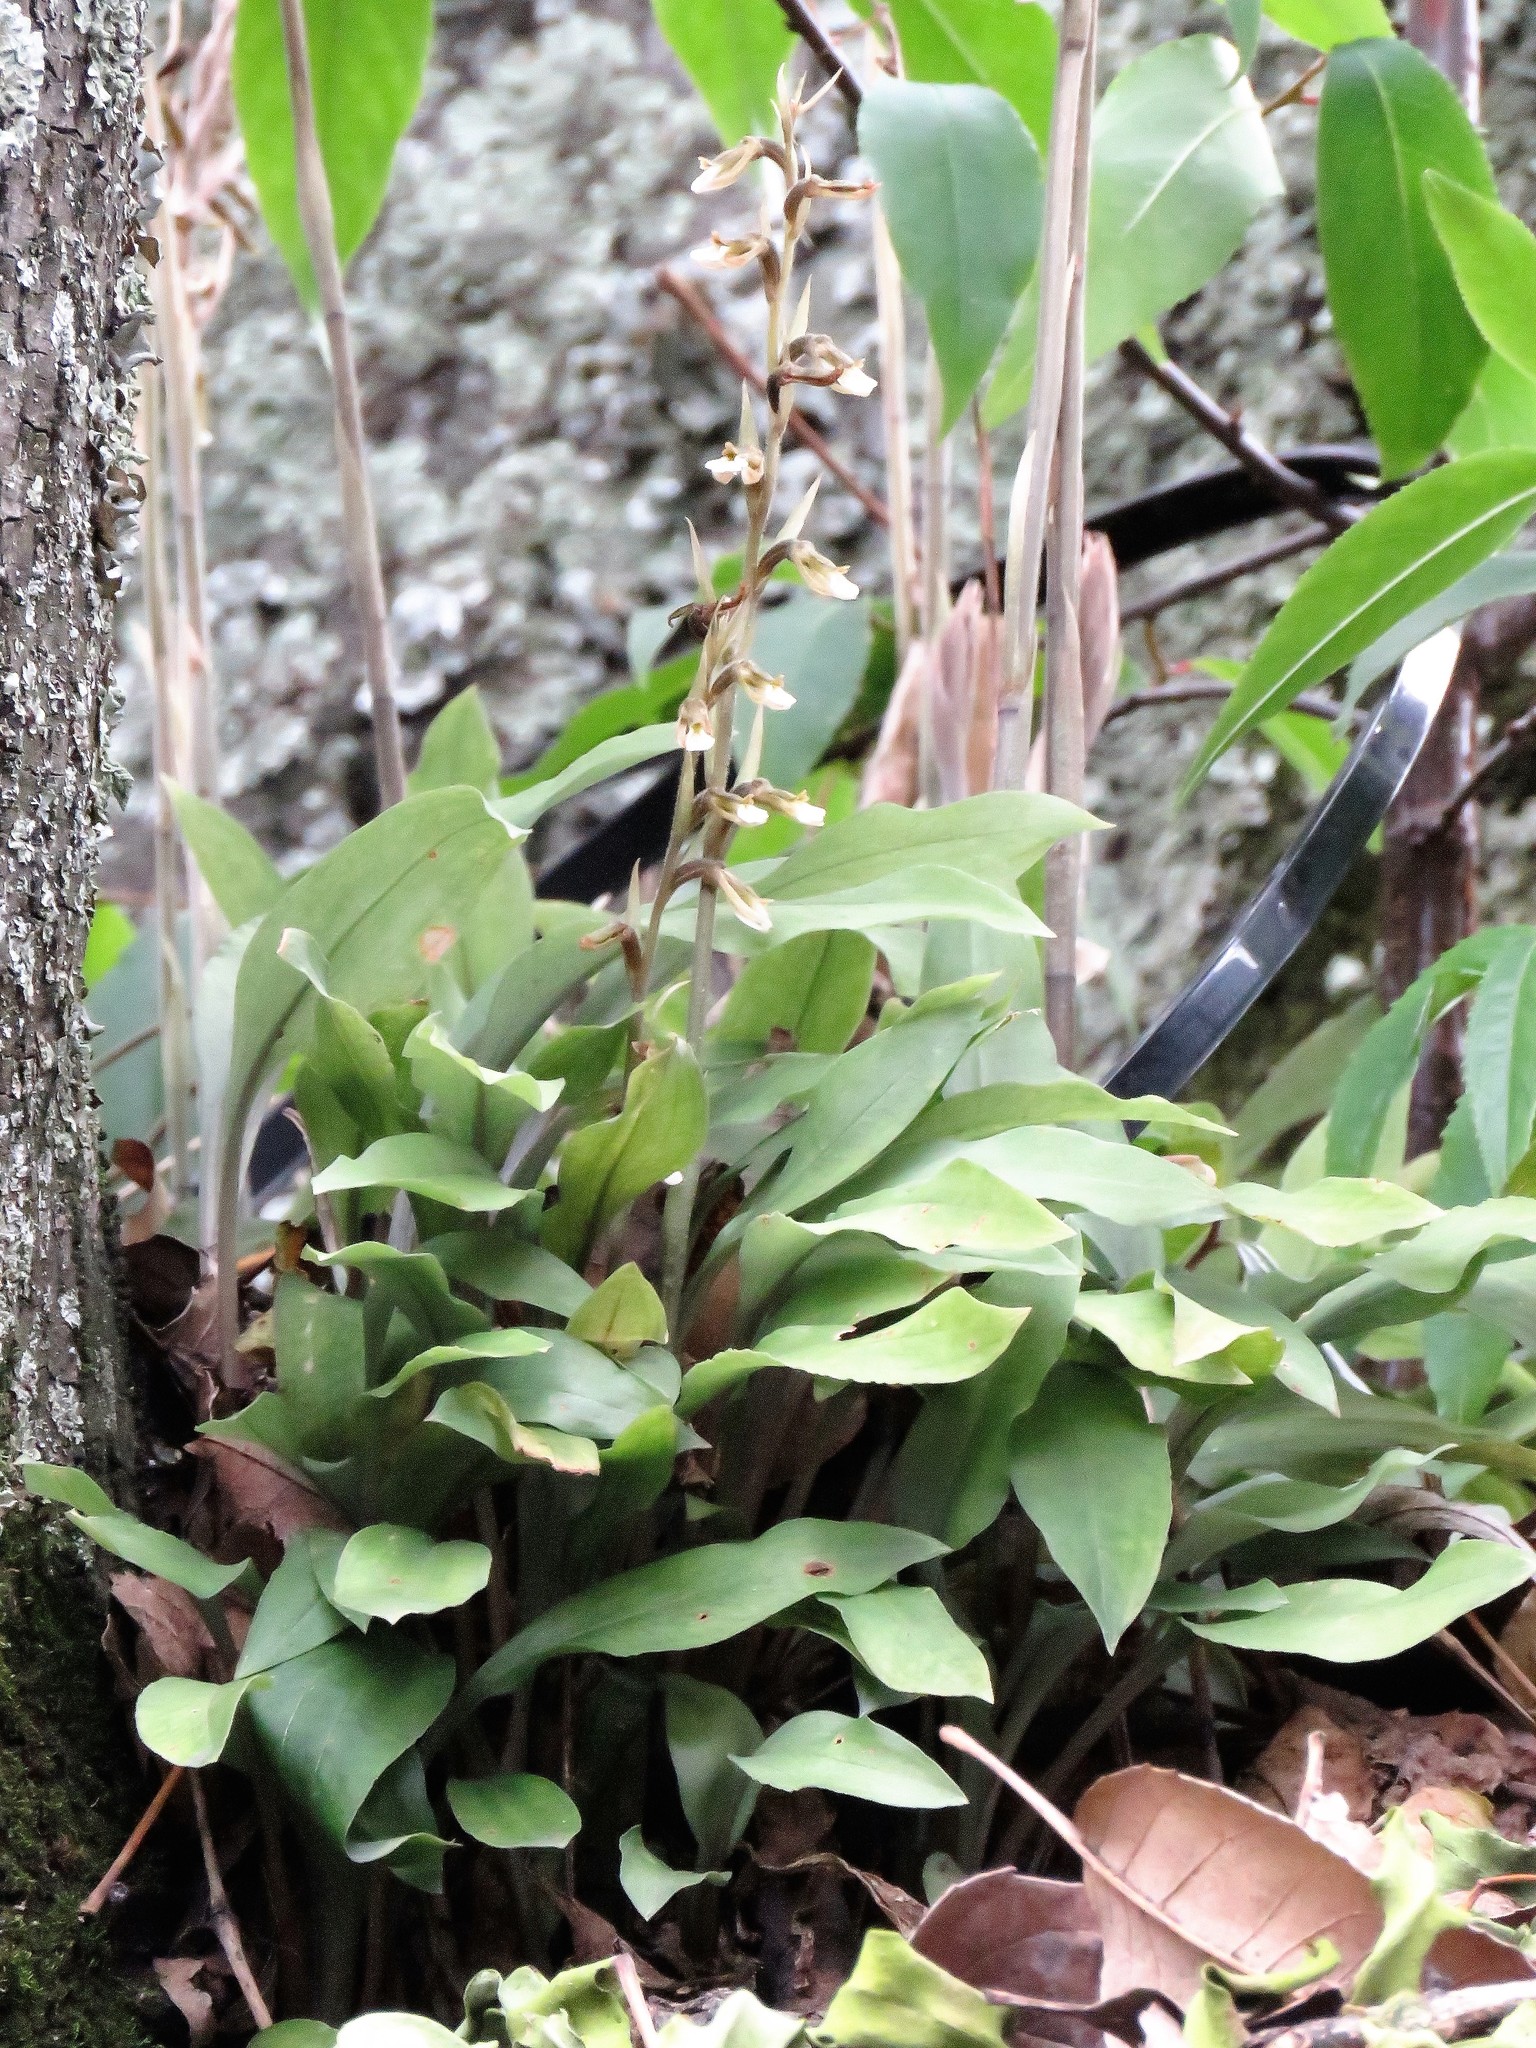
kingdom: Plantae
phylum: Tracheophyta
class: Liliopsida
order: Asparagales
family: Orchidaceae
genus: Cyclopogon
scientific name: Cyclopogon elatus
